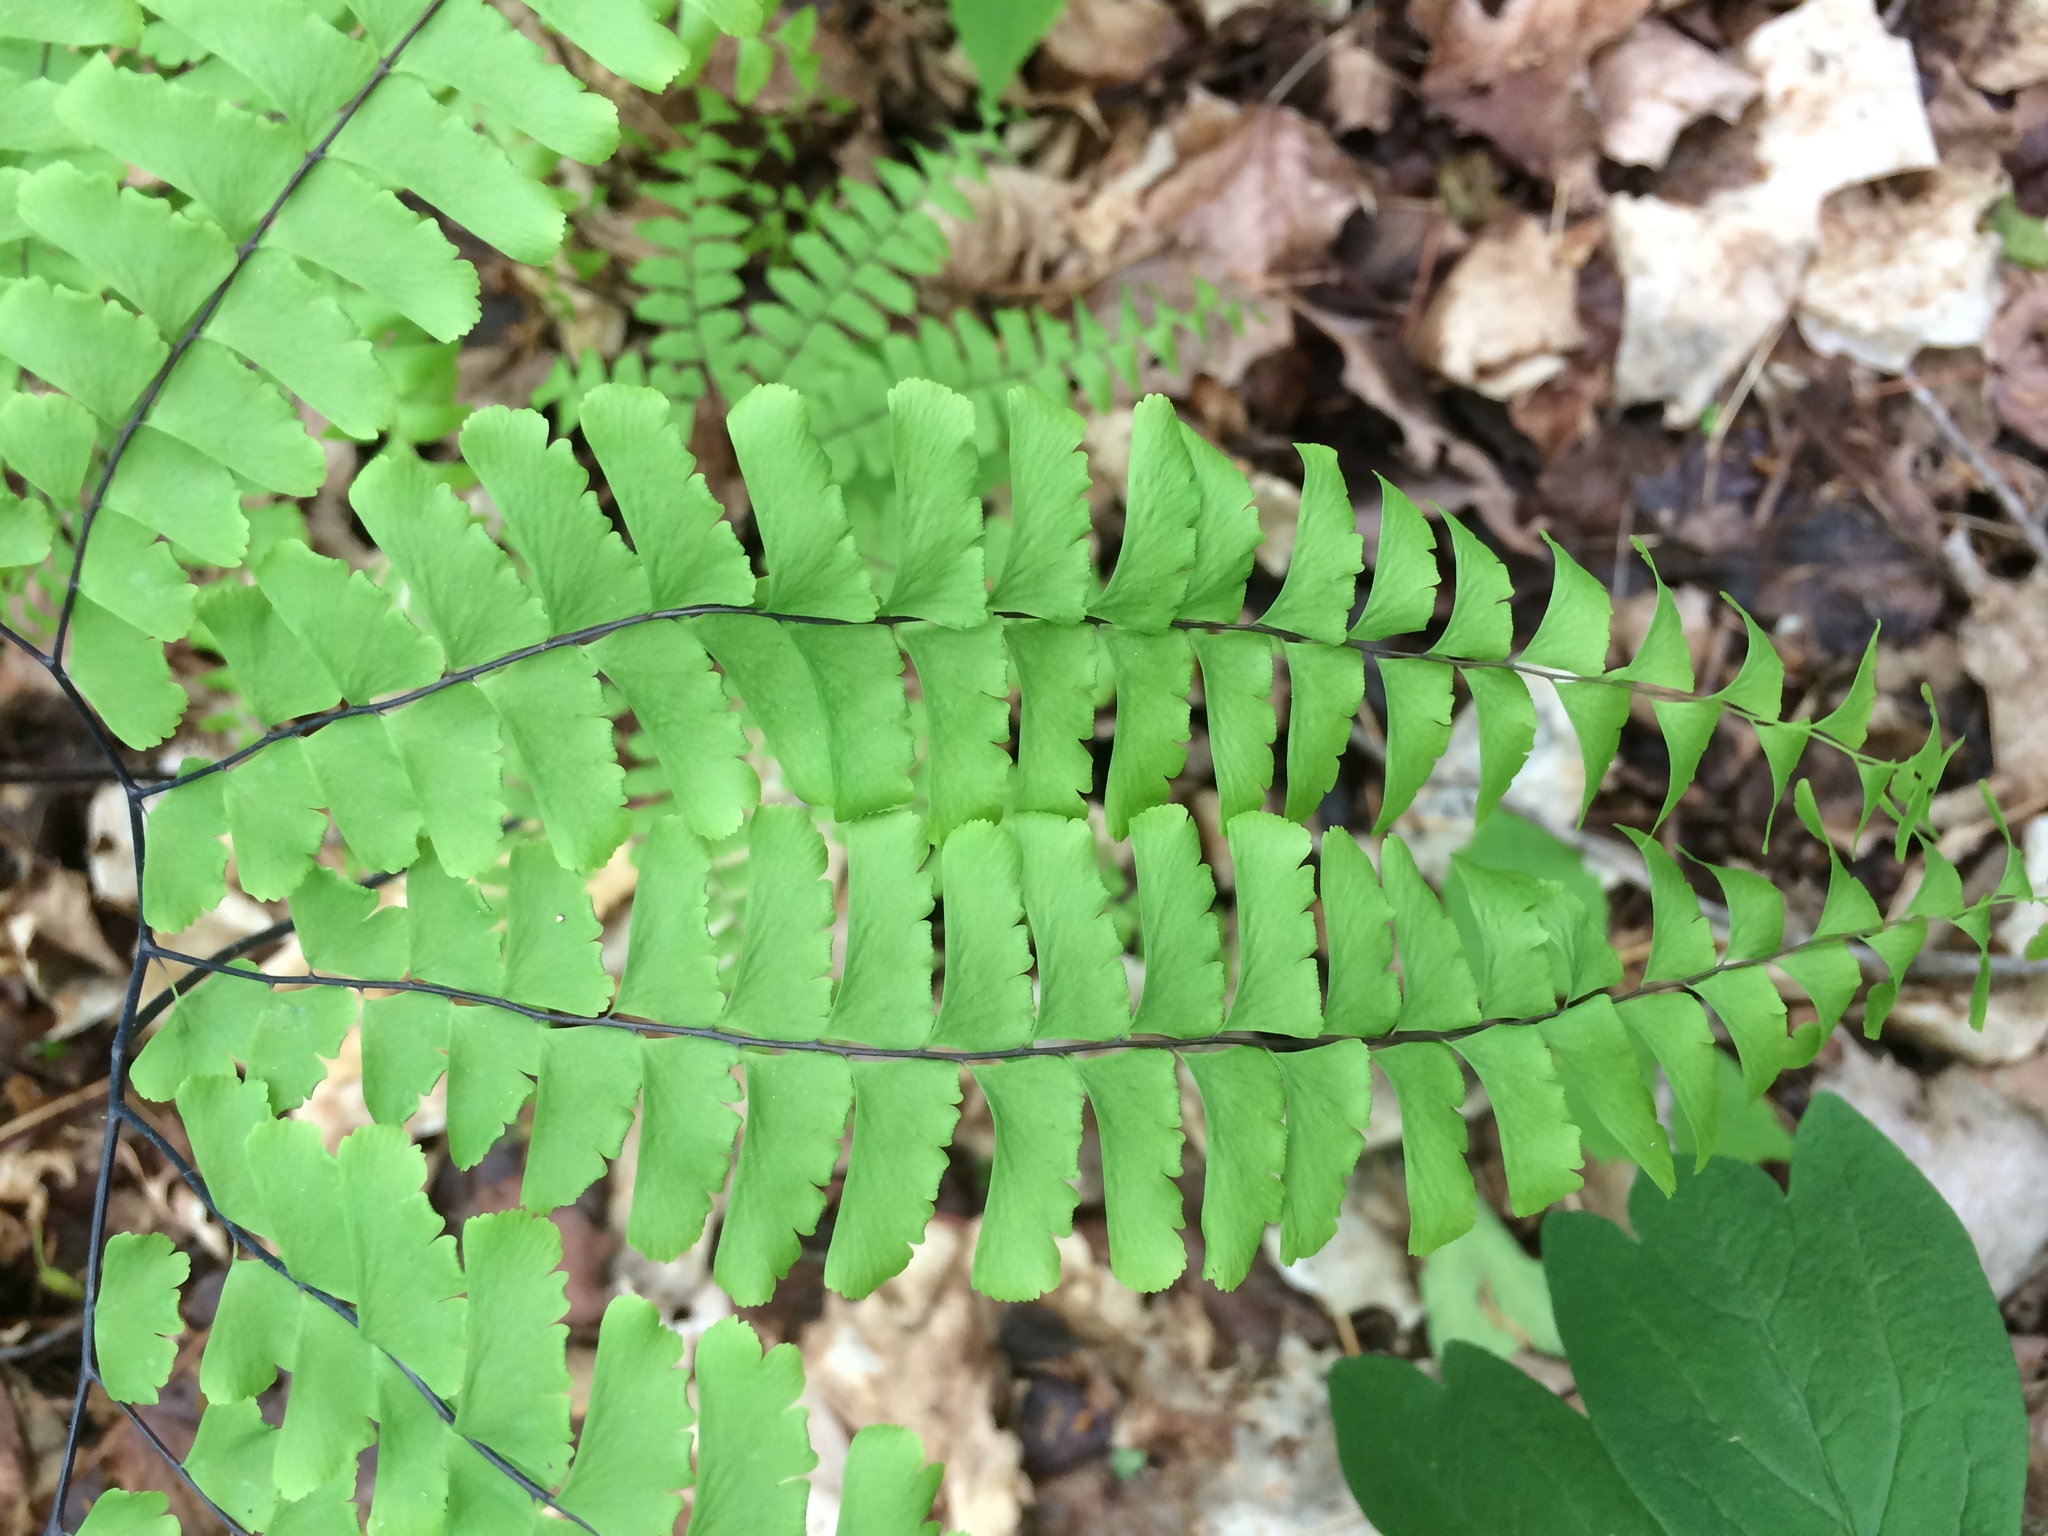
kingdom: Plantae
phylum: Tracheophyta
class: Polypodiopsida
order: Polypodiales
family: Pteridaceae
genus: Adiantum
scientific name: Adiantum pedatum
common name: Five-finger fern
